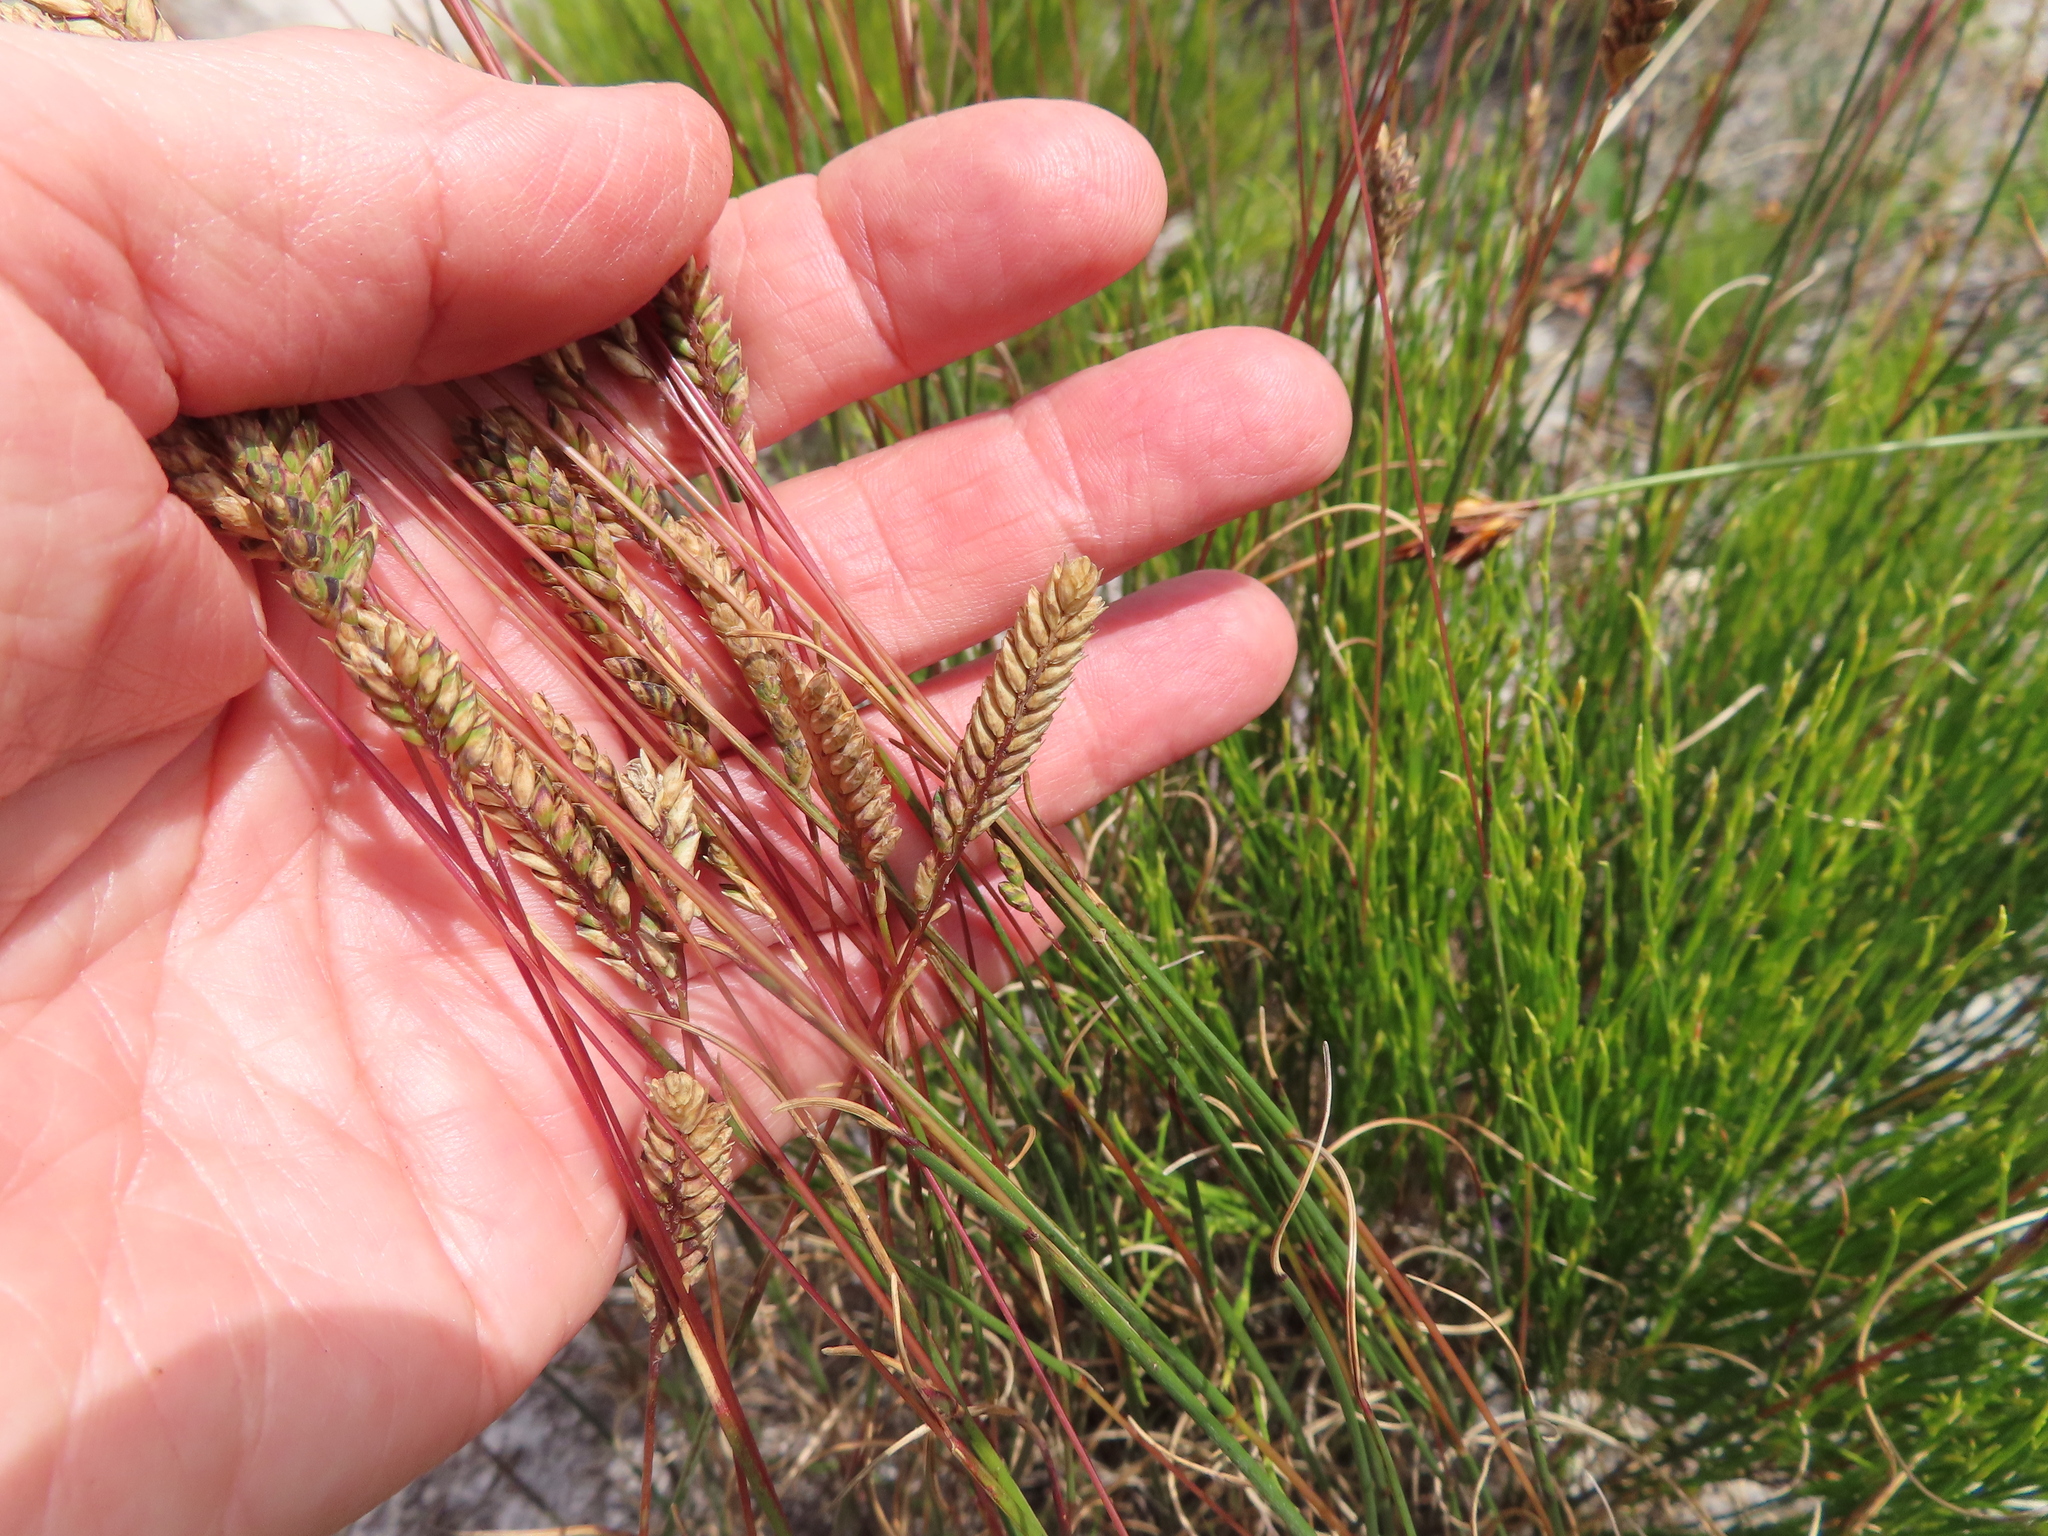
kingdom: Plantae
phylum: Tracheophyta
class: Liliopsida
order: Poales
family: Poaceae
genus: Tribolium
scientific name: Tribolium uniolae
